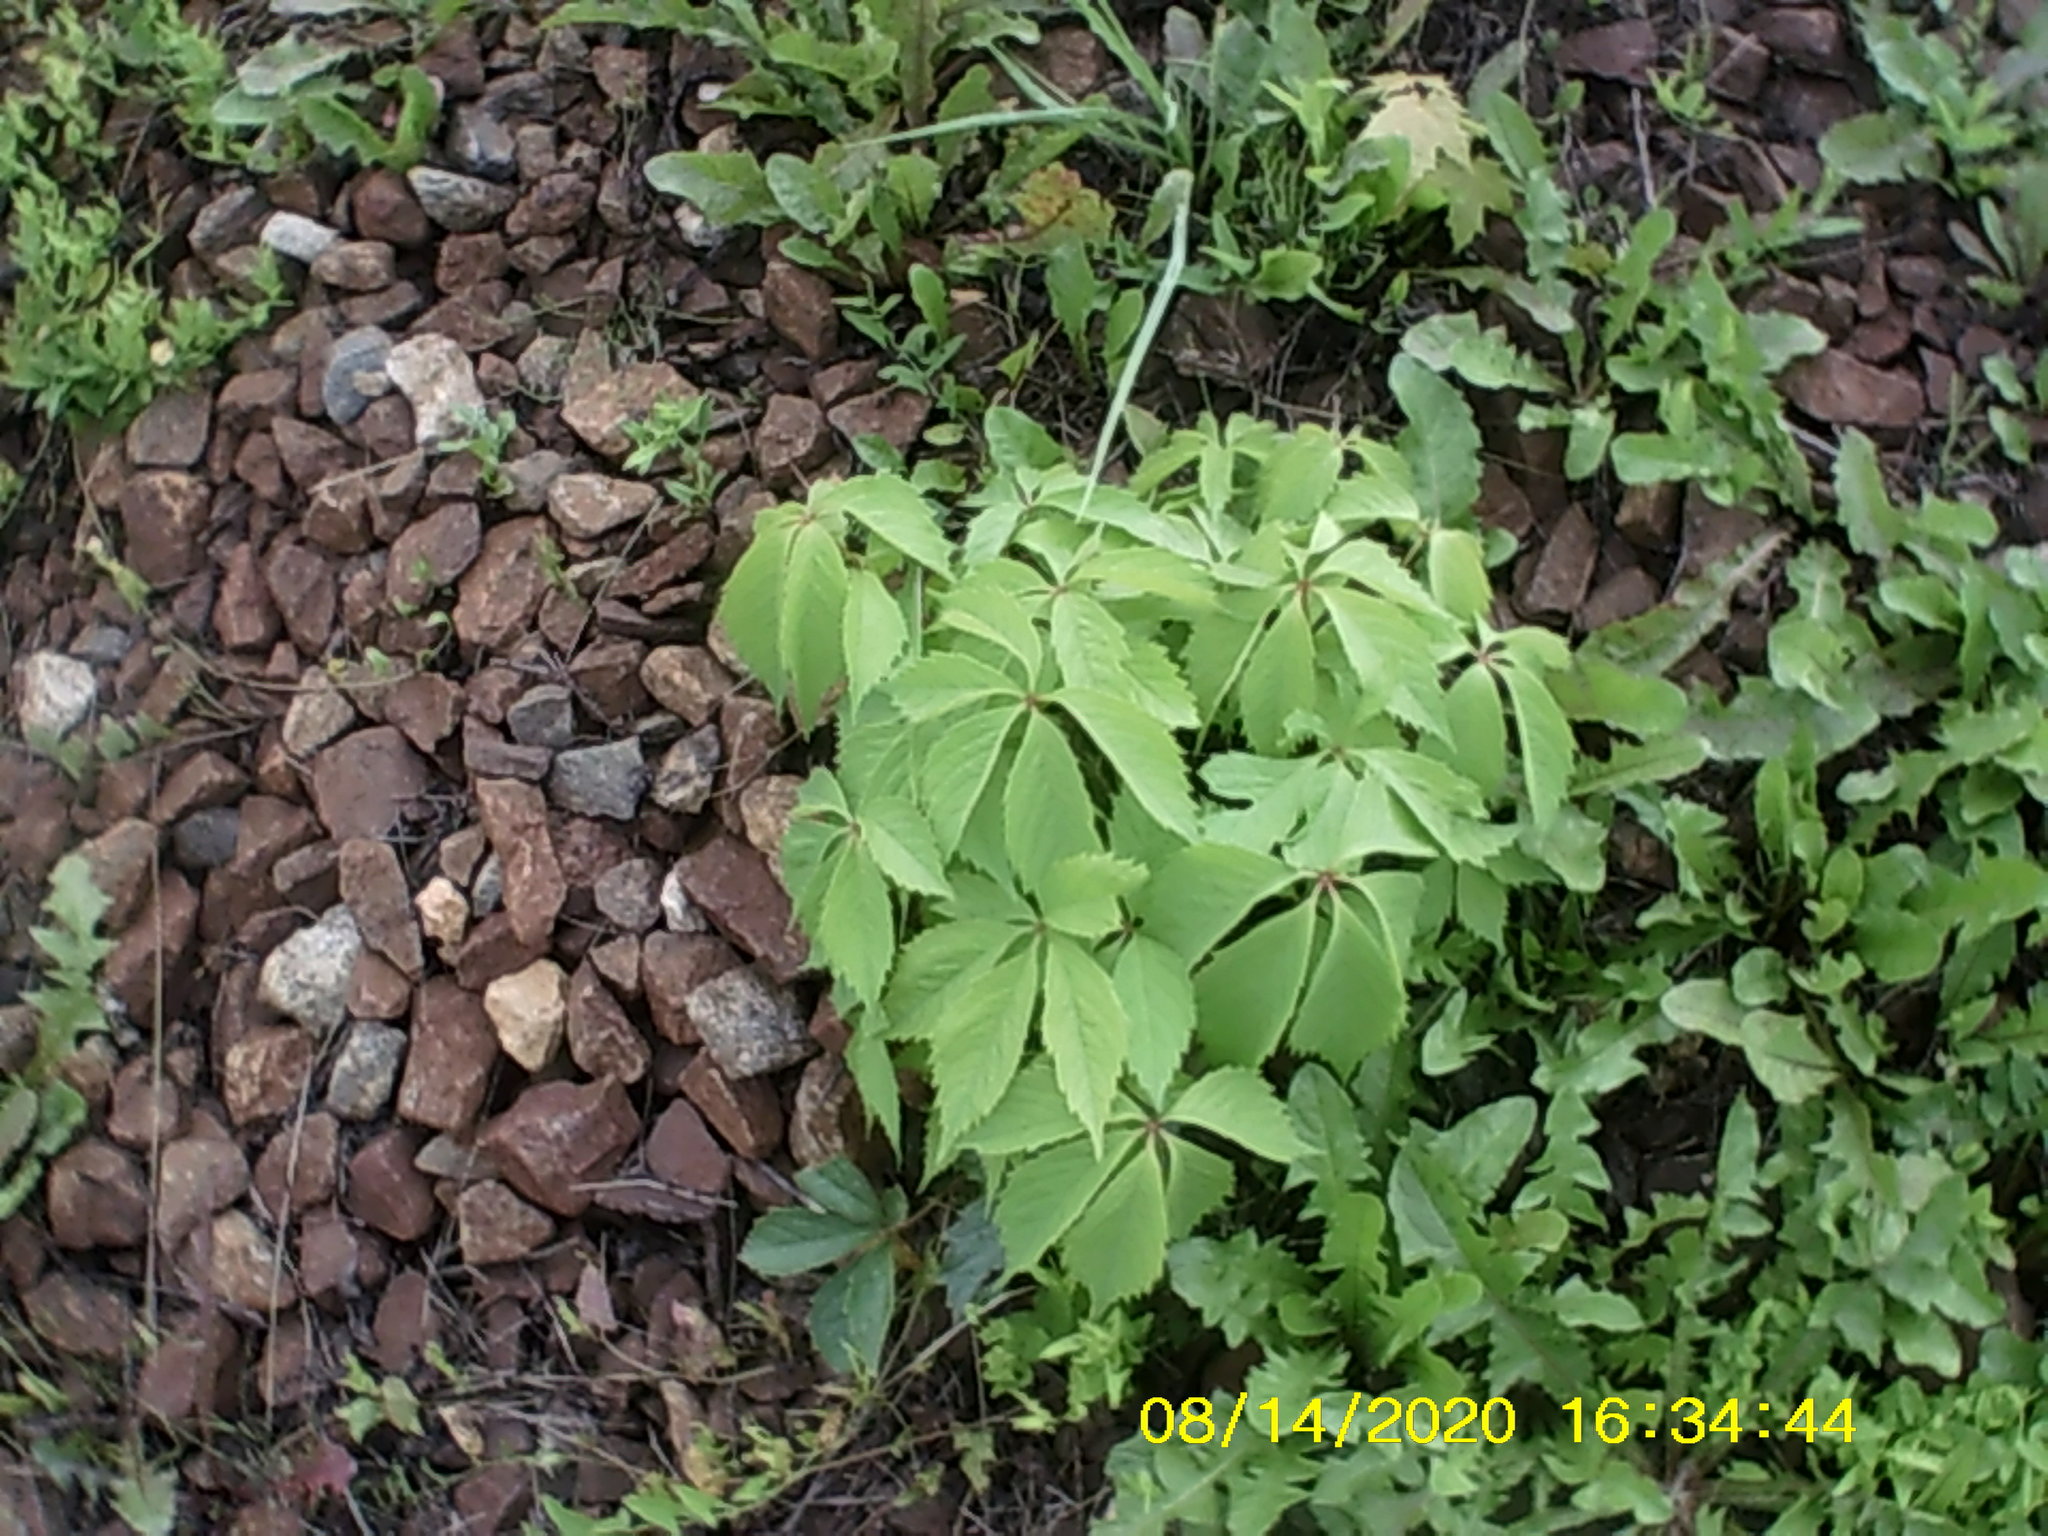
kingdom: Plantae
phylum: Tracheophyta
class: Magnoliopsida
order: Vitales
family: Vitaceae
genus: Parthenocissus
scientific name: Parthenocissus inserta
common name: False virginia-creeper
